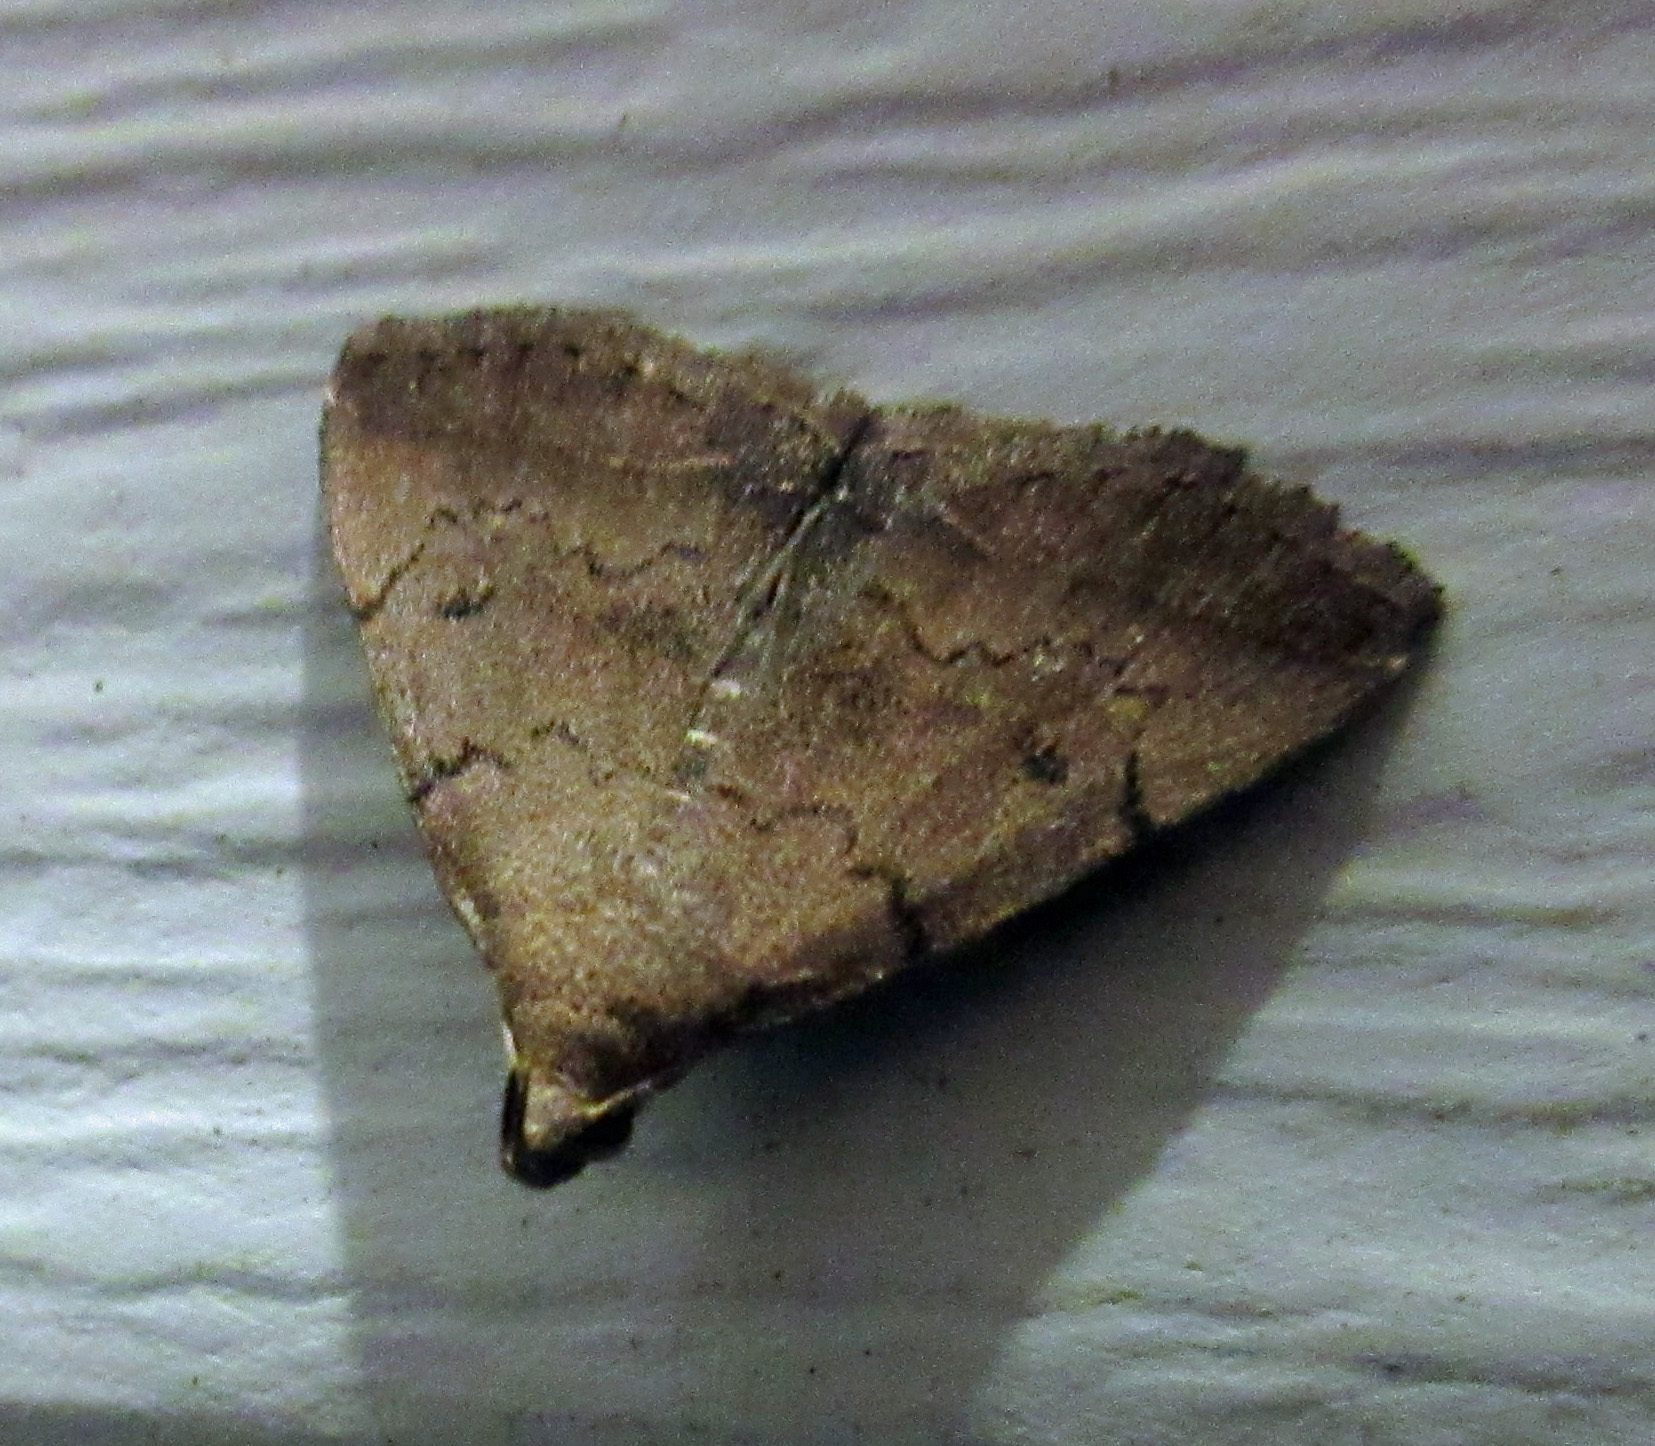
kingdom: Animalia
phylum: Arthropoda
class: Insecta
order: Lepidoptera
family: Erebidae
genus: Zanclognatha
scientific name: Zanclognatha martha
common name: Pine barrens zanclognatha
